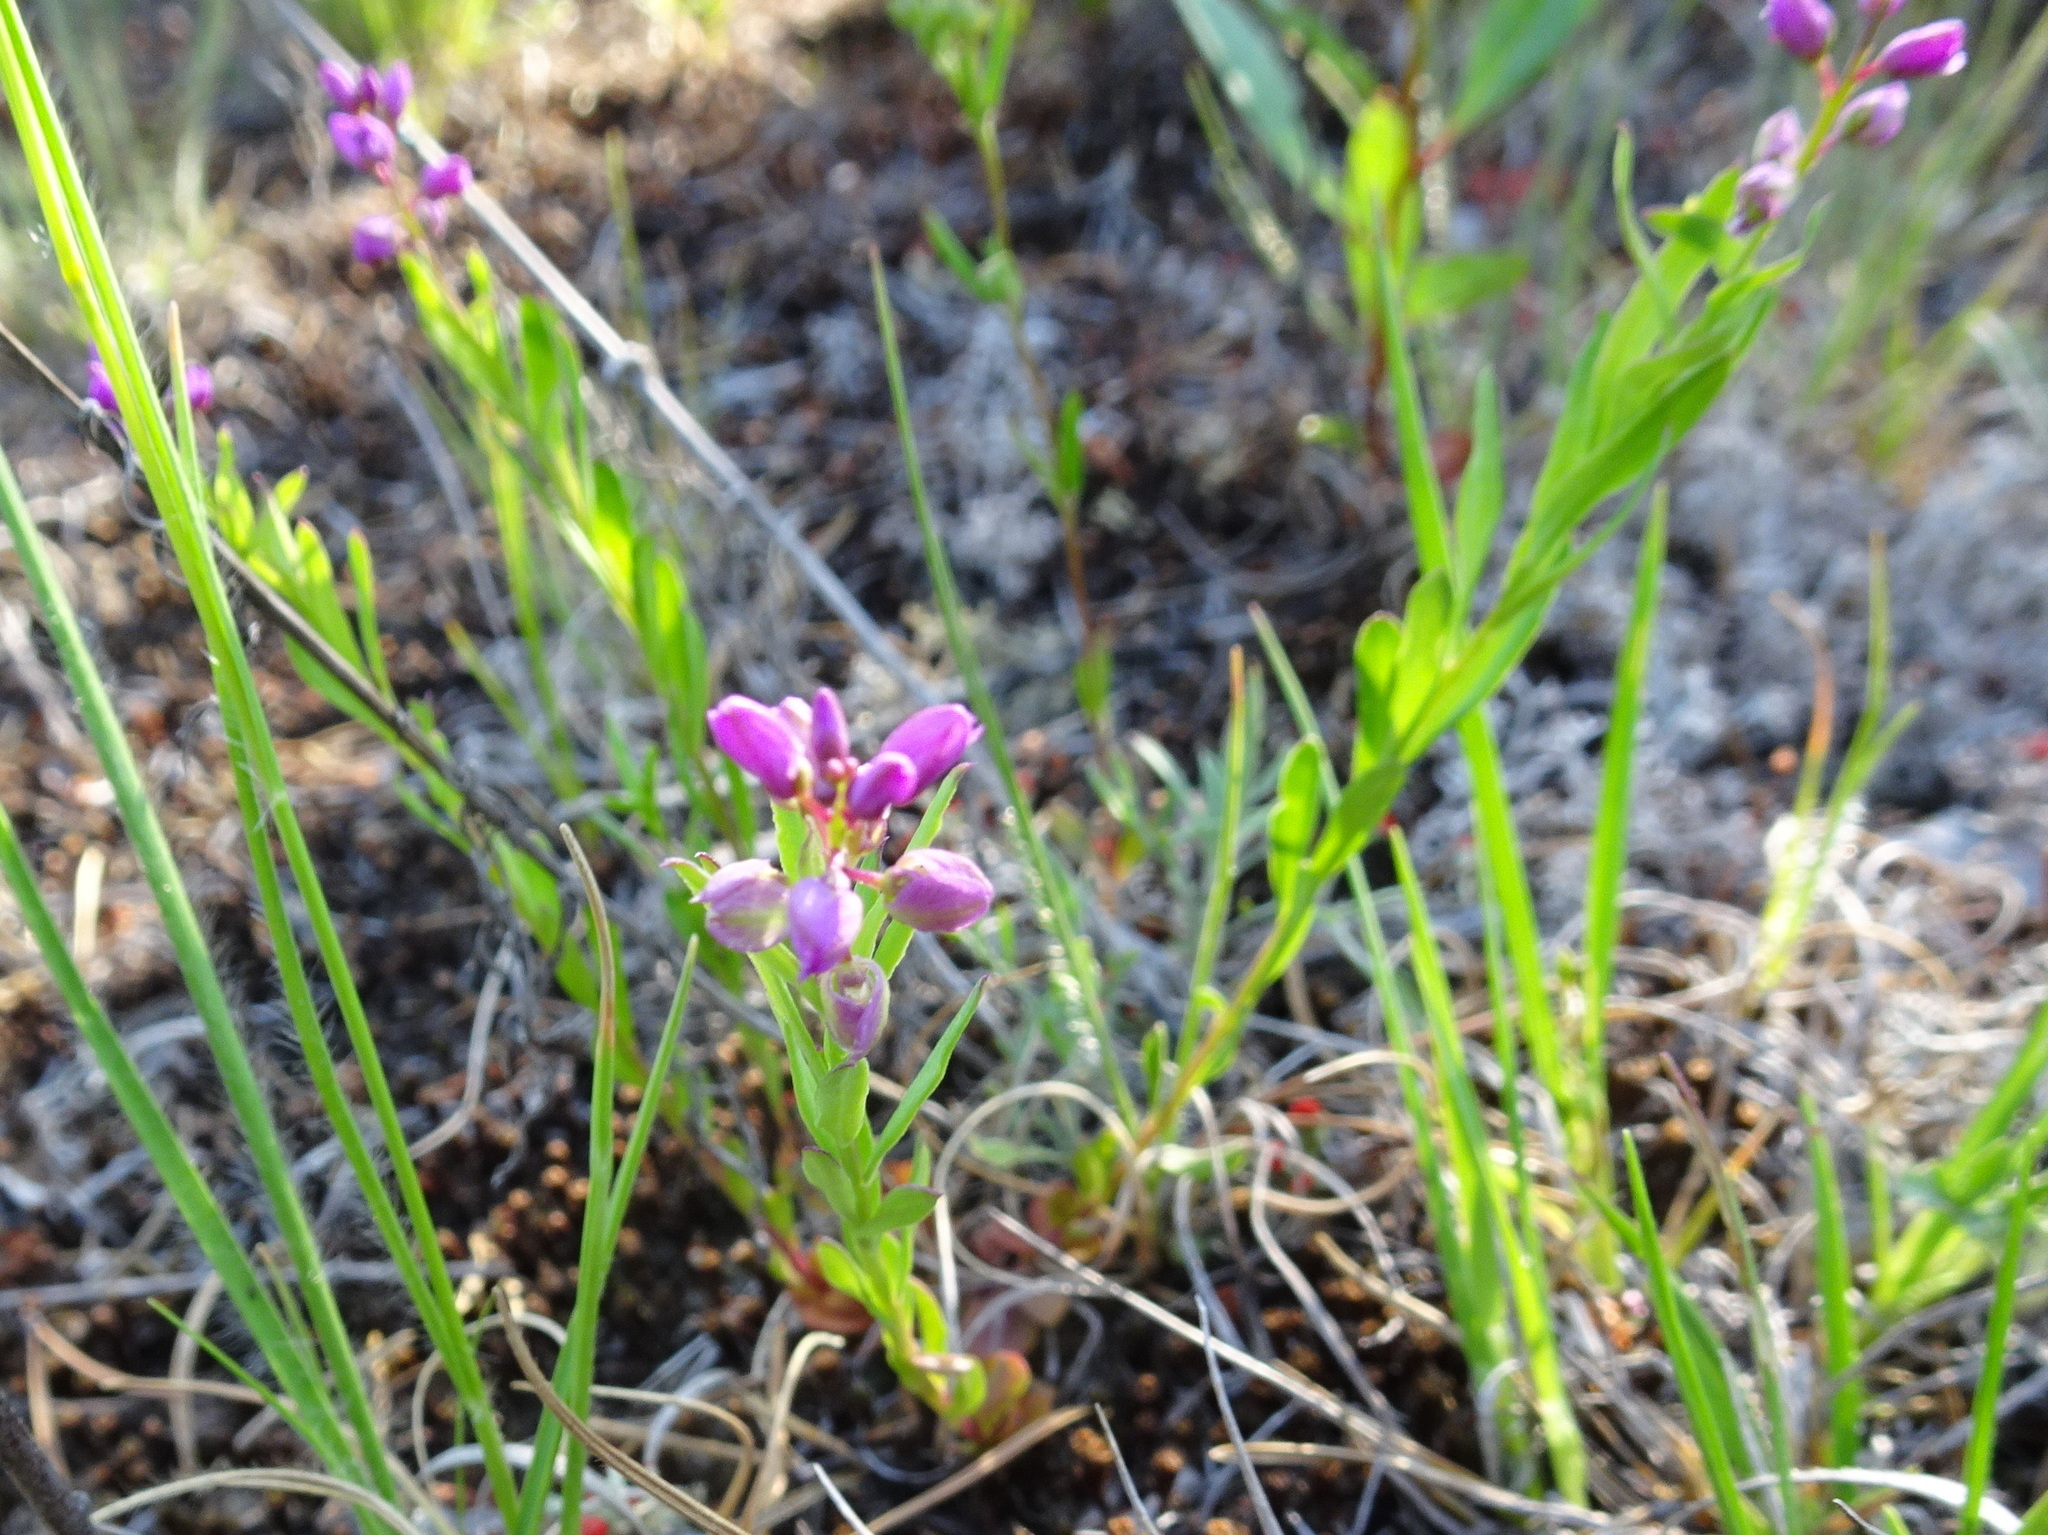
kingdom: Plantae
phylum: Tracheophyta
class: Magnoliopsida
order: Fabales
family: Polygalaceae
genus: Polygala
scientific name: Polygala polygama
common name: Bitter milkwort
